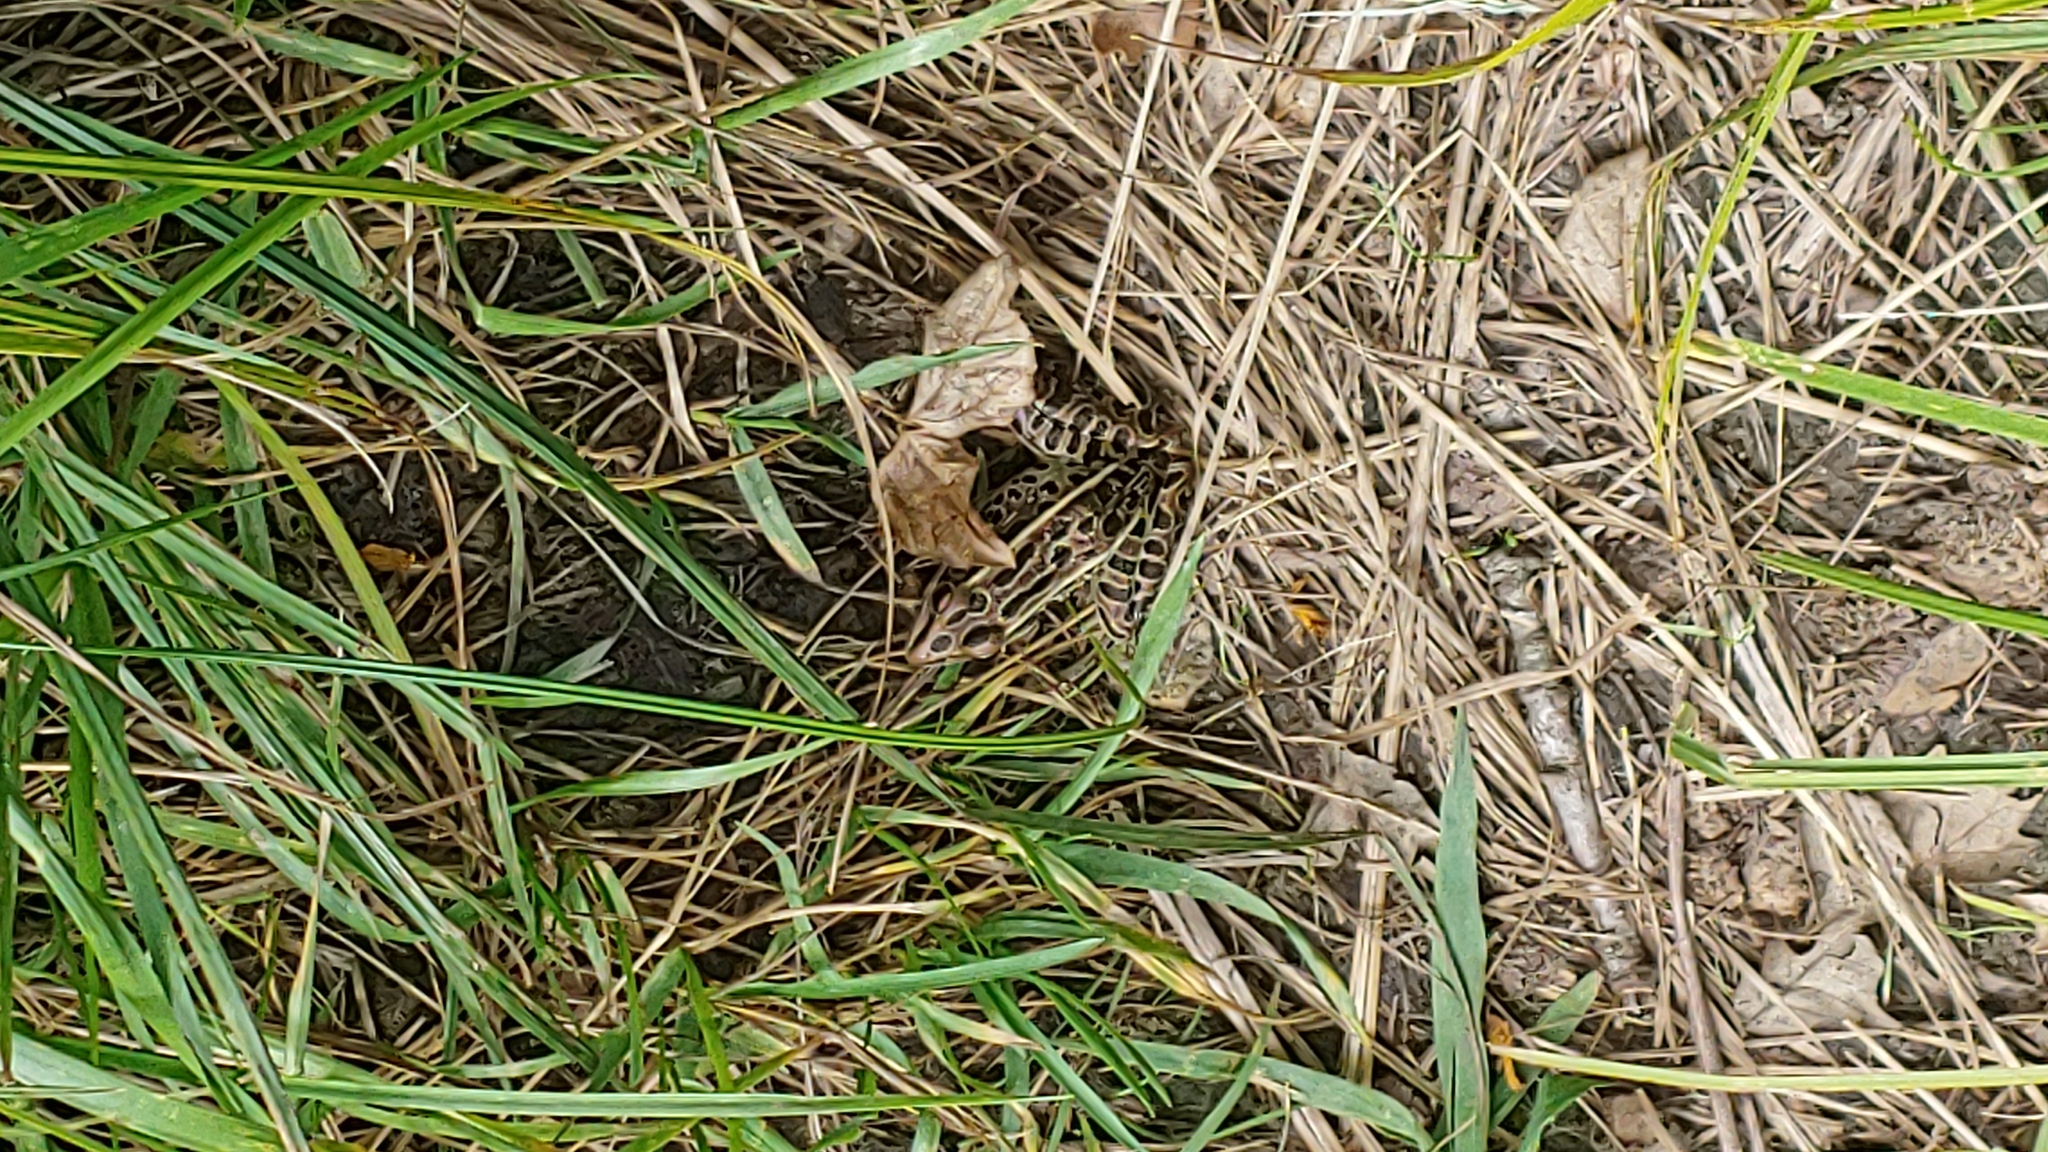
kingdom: Animalia
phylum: Chordata
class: Amphibia
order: Anura
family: Ranidae
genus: Lithobates
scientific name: Lithobates pipiens
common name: Northern leopard frog
